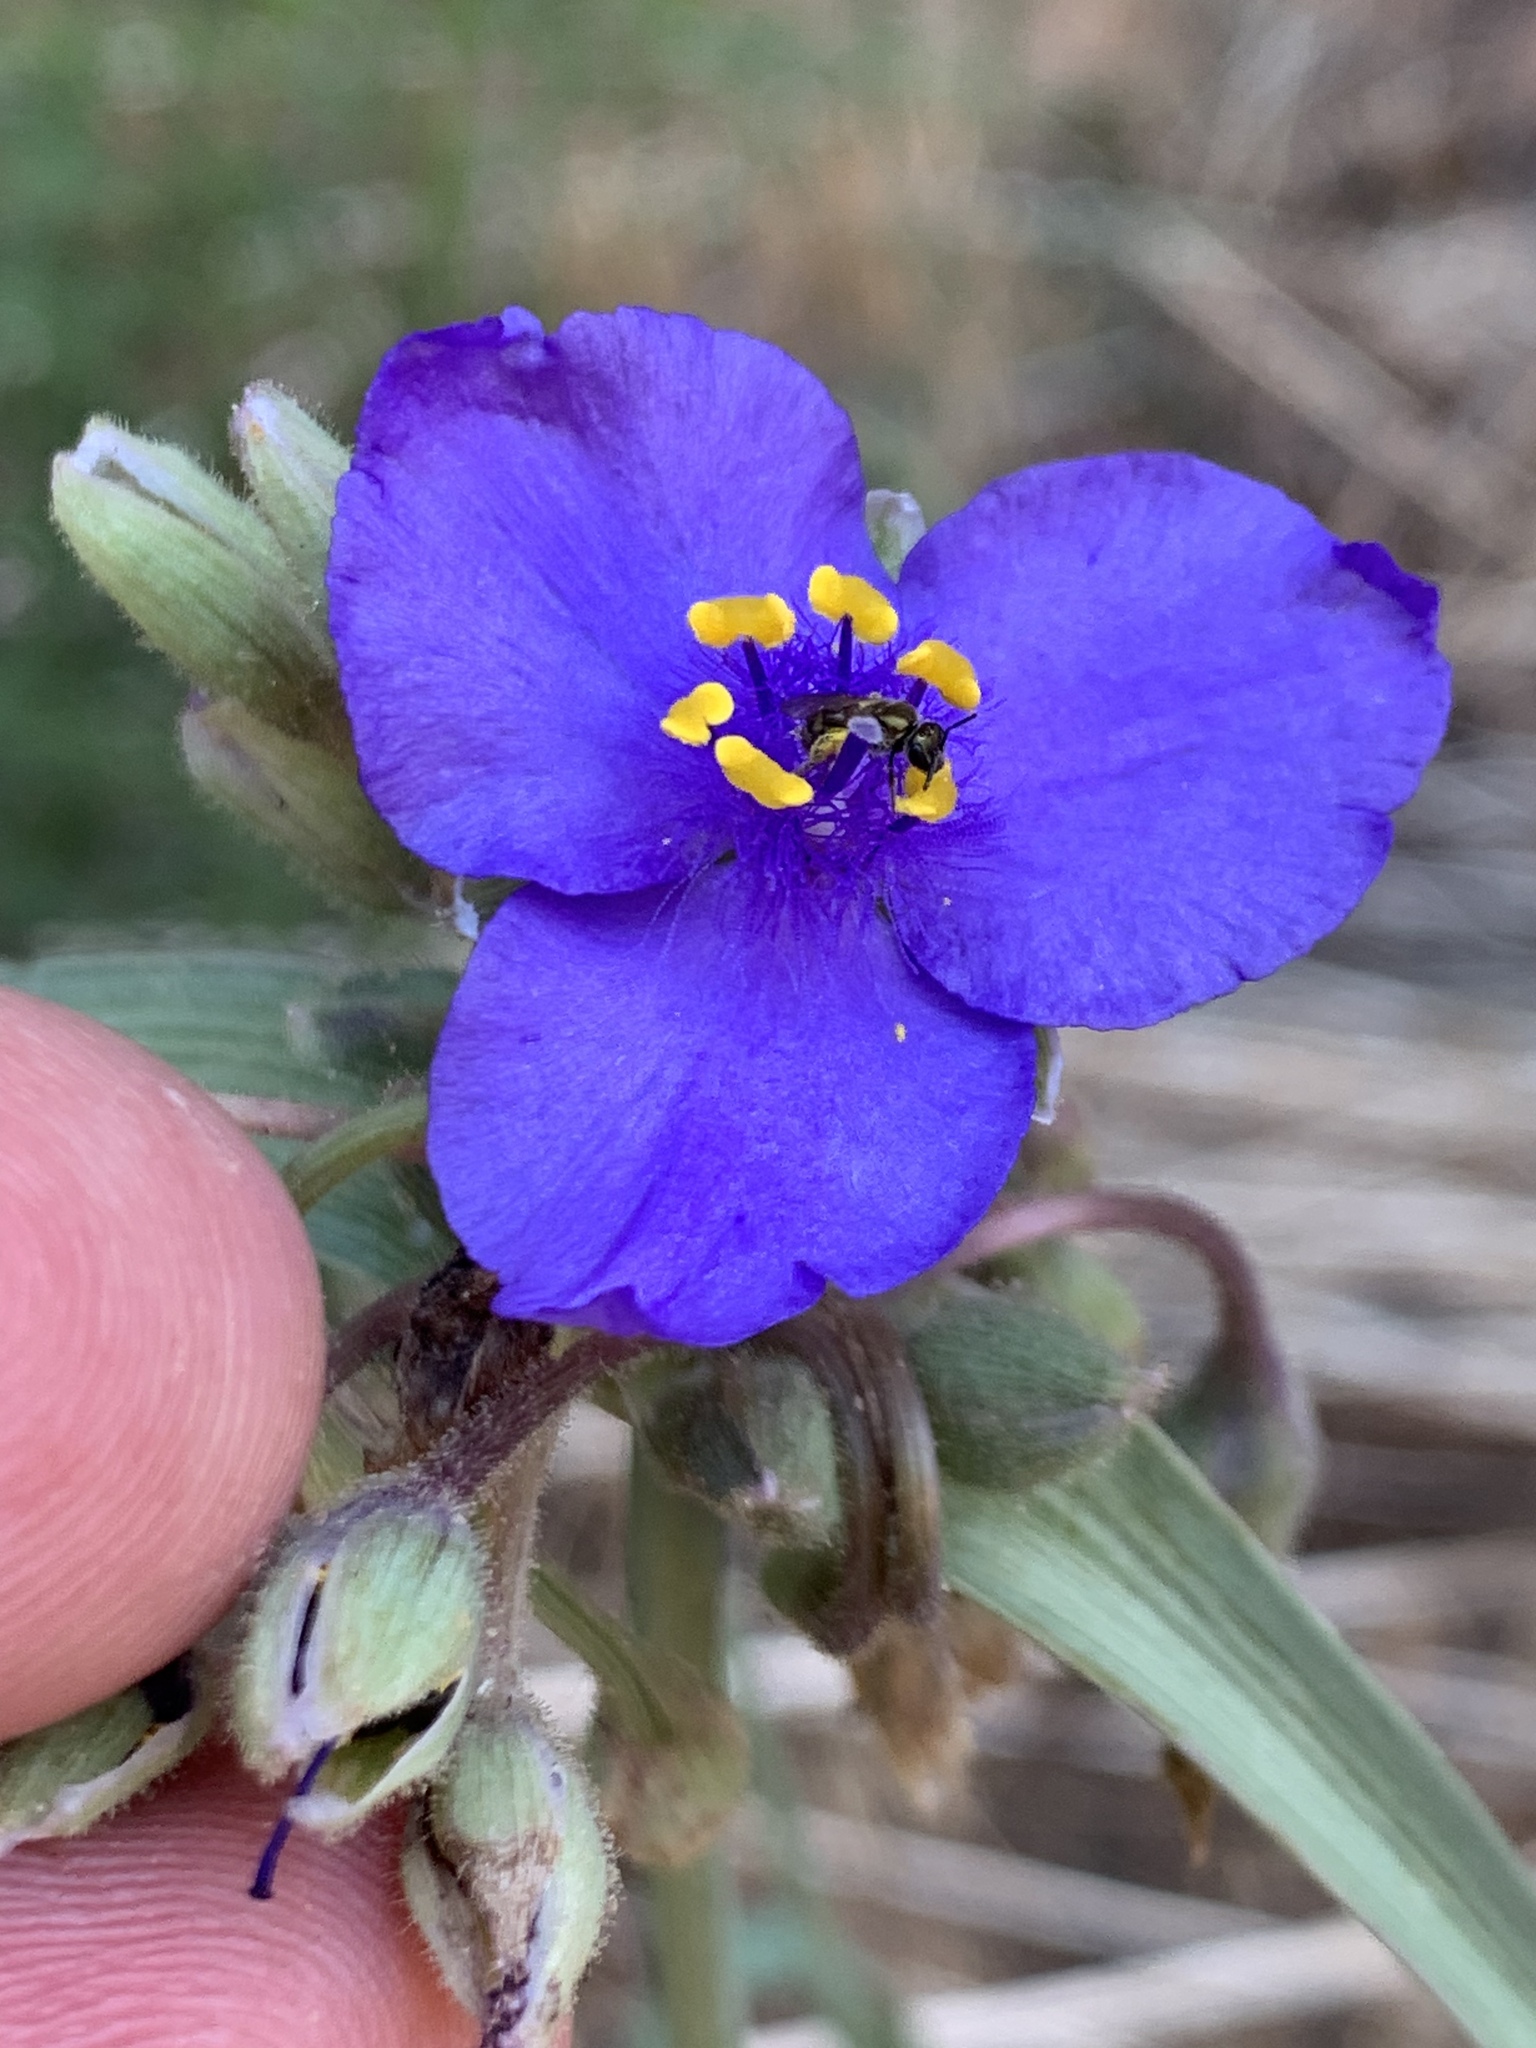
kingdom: Plantae
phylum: Tracheophyta
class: Liliopsida
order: Commelinales
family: Commelinaceae
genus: Tradescantia
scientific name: Tradescantia occidentalis
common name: Prairie spiderwort
